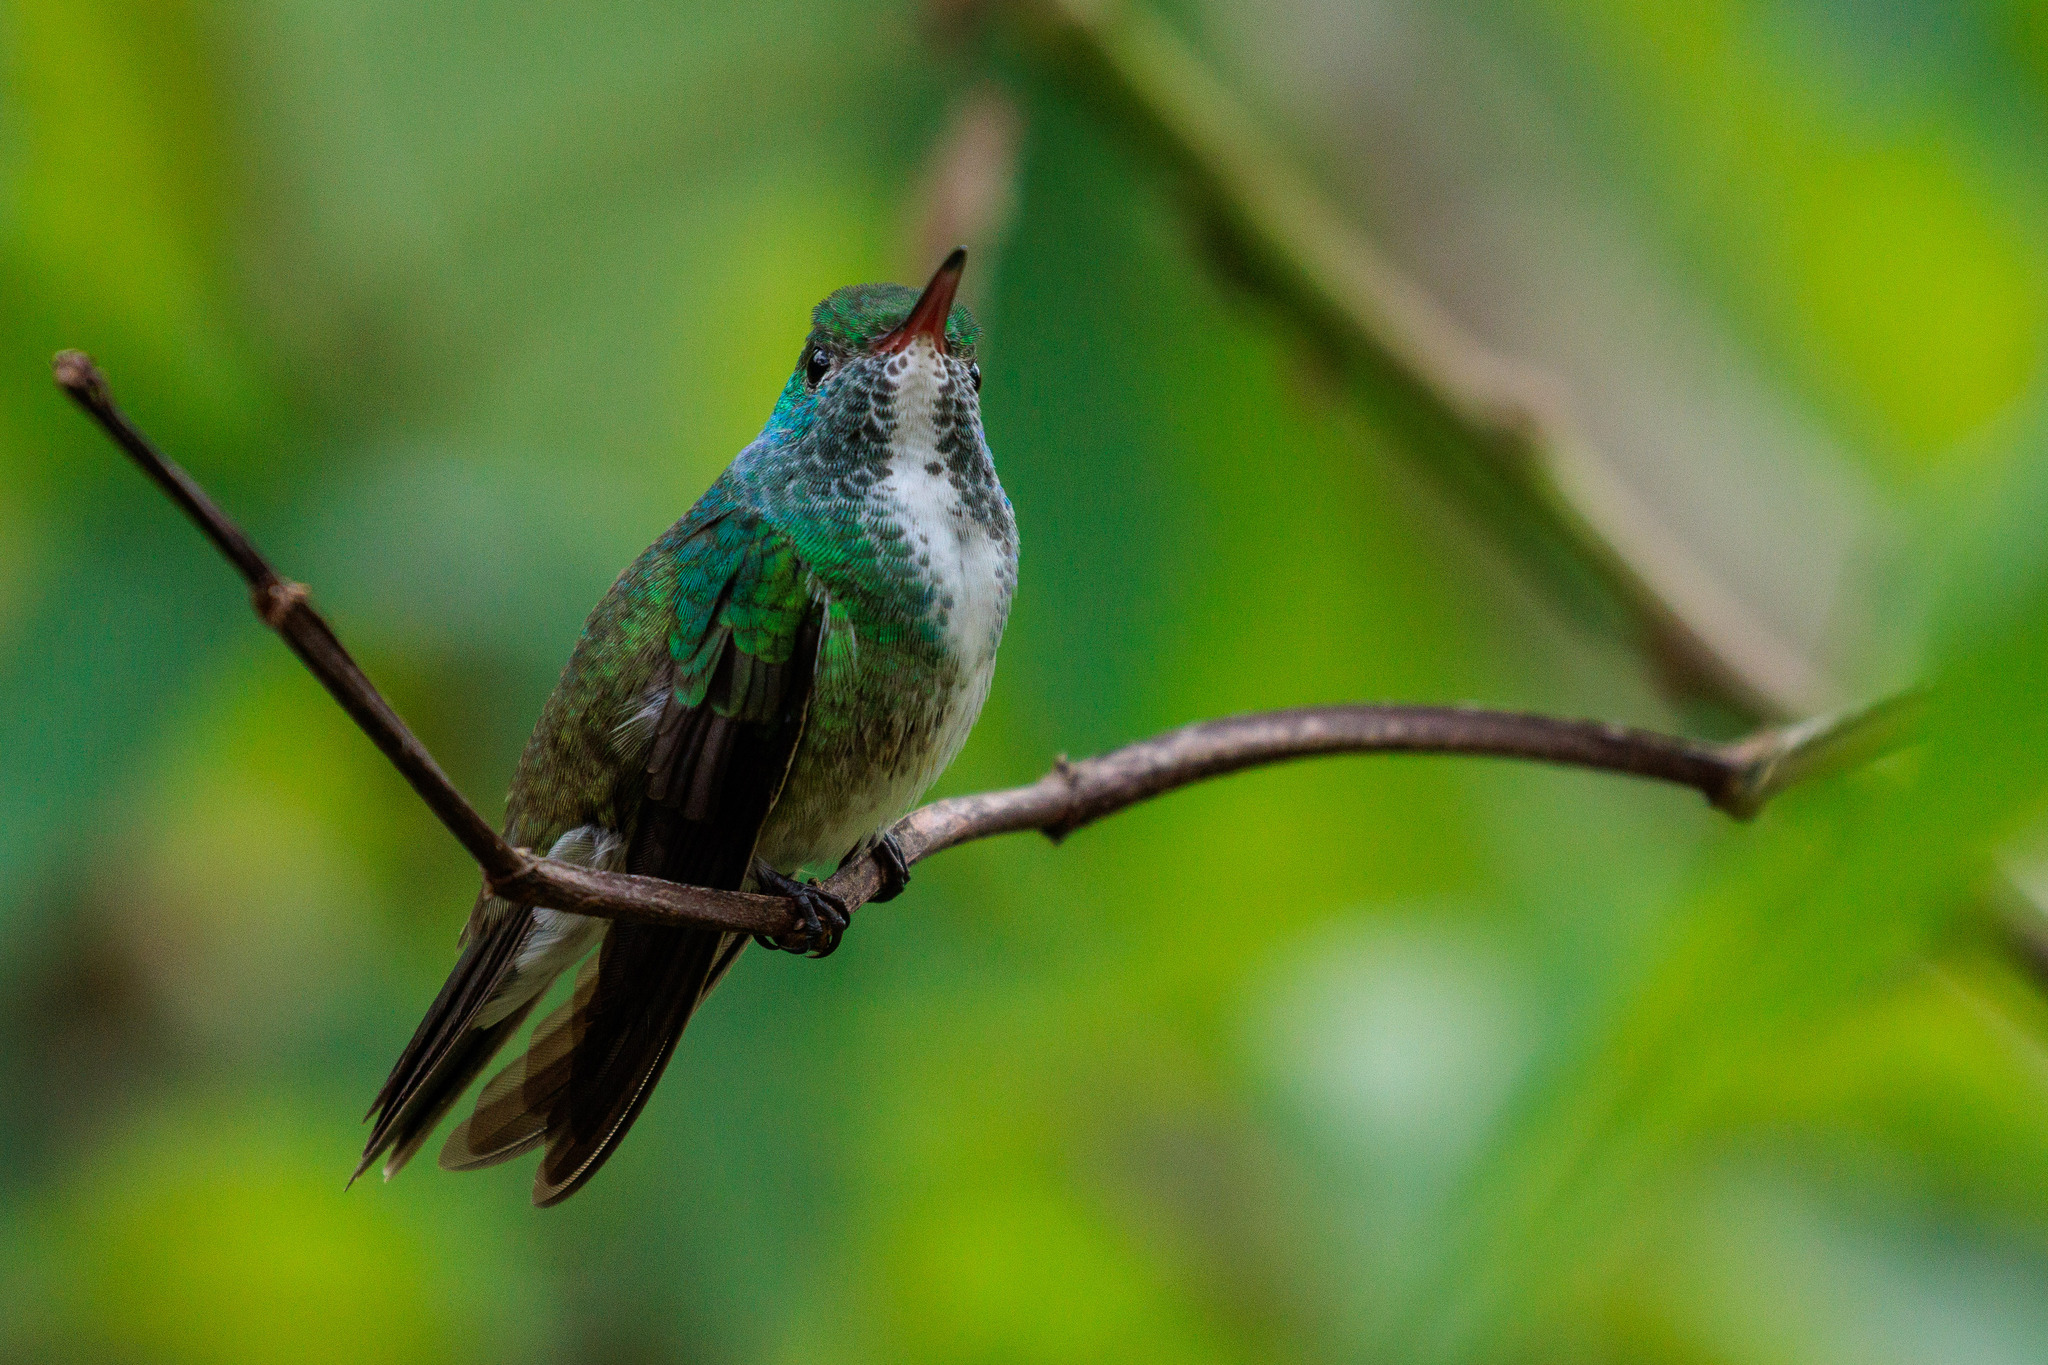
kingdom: Animalia
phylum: Chordata
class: Aves
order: Apodiformes
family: Trochilidae
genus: Chrysuronia
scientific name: Chrysuronia versicolor
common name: Versicolored emerald
